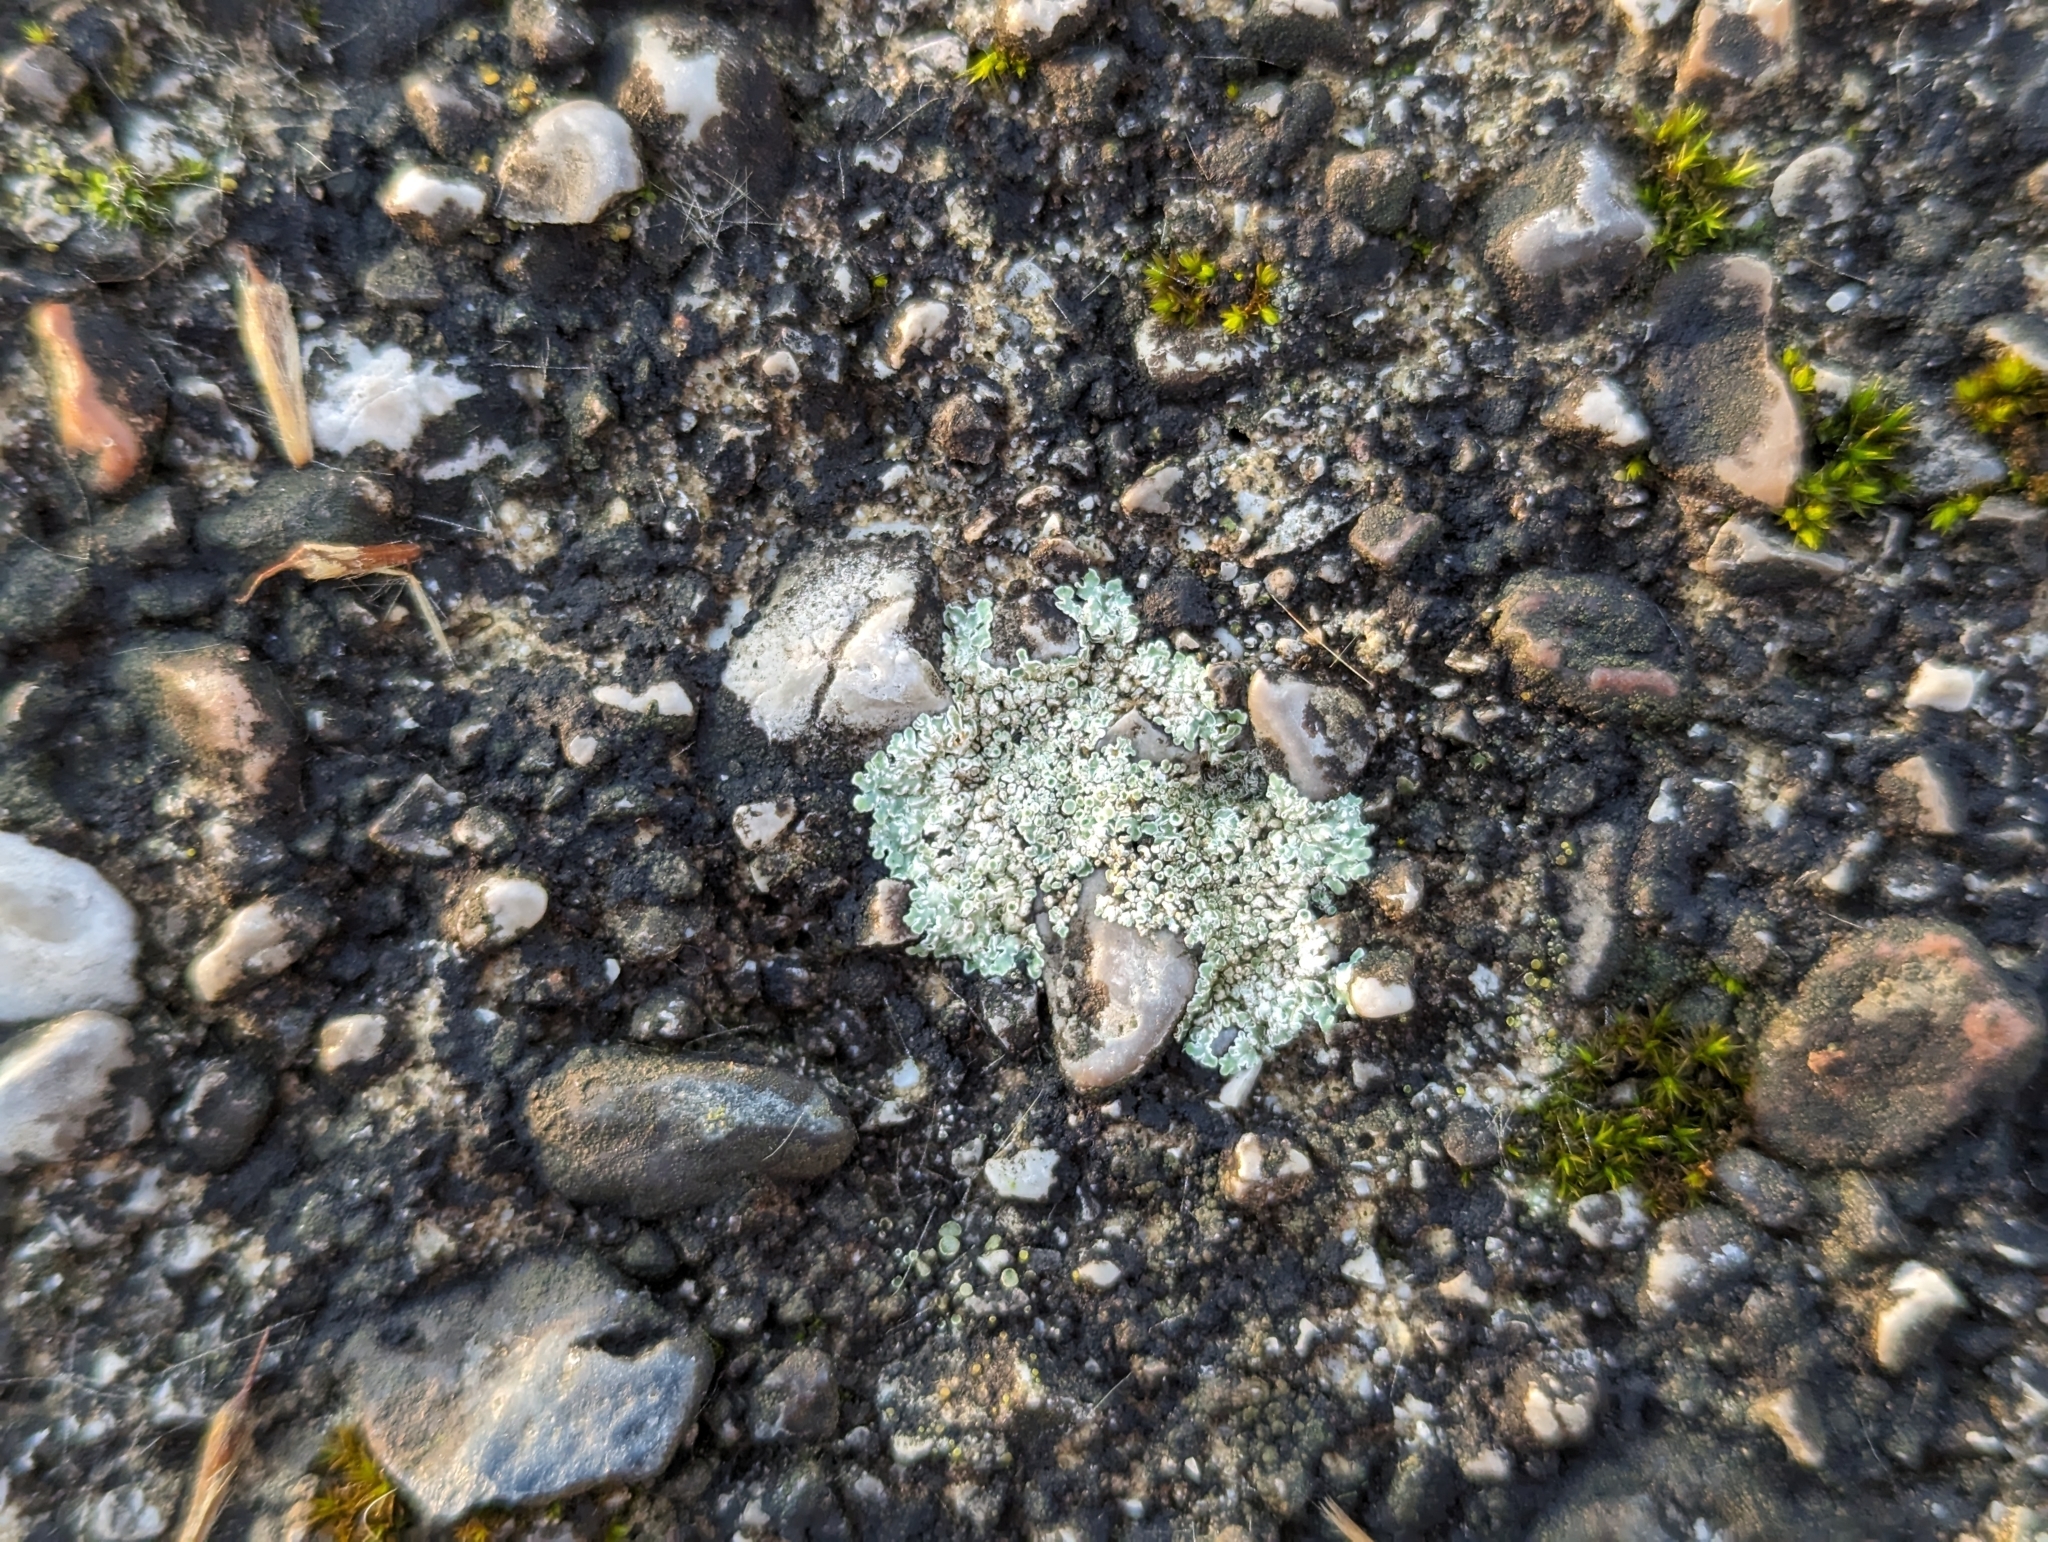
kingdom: Fungi
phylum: Ascomycota
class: Lecanoromycetes
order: Lecanorales
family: Lecanoraceae
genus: Protoparmeliopsis
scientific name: Protoparmeliopsis muralis
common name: Stonewall rim lichen
